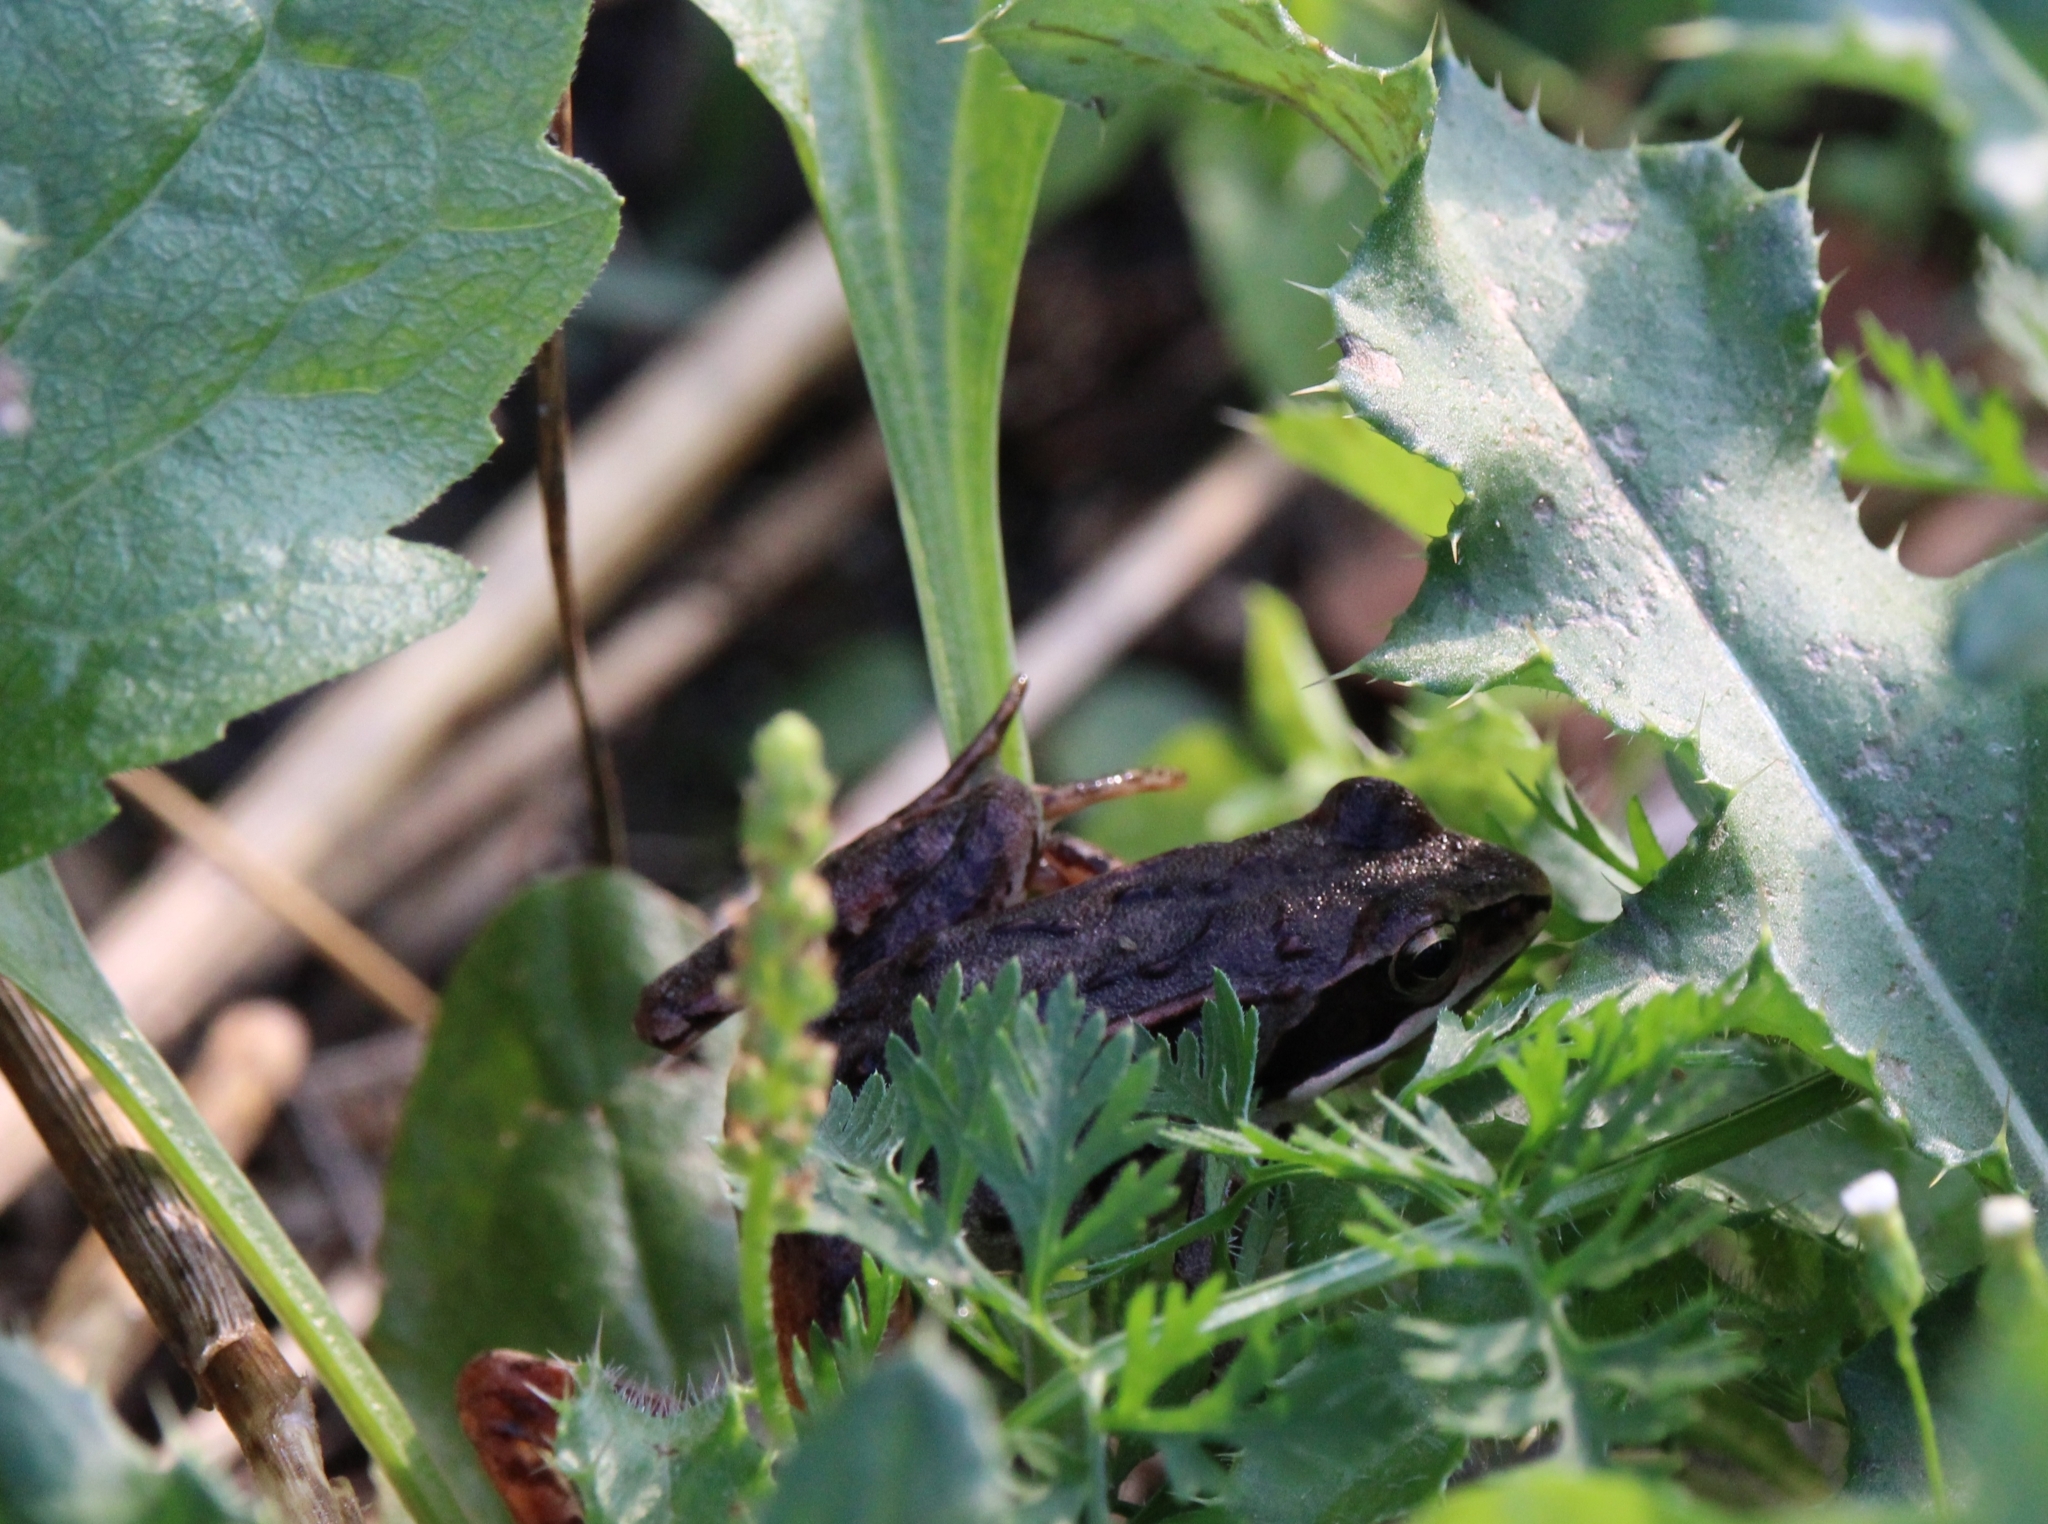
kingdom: Animalia
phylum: Chordata
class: Amphibia
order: Anura
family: Ranidae
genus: Rana
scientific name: Rana arvalis
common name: Moor frog
